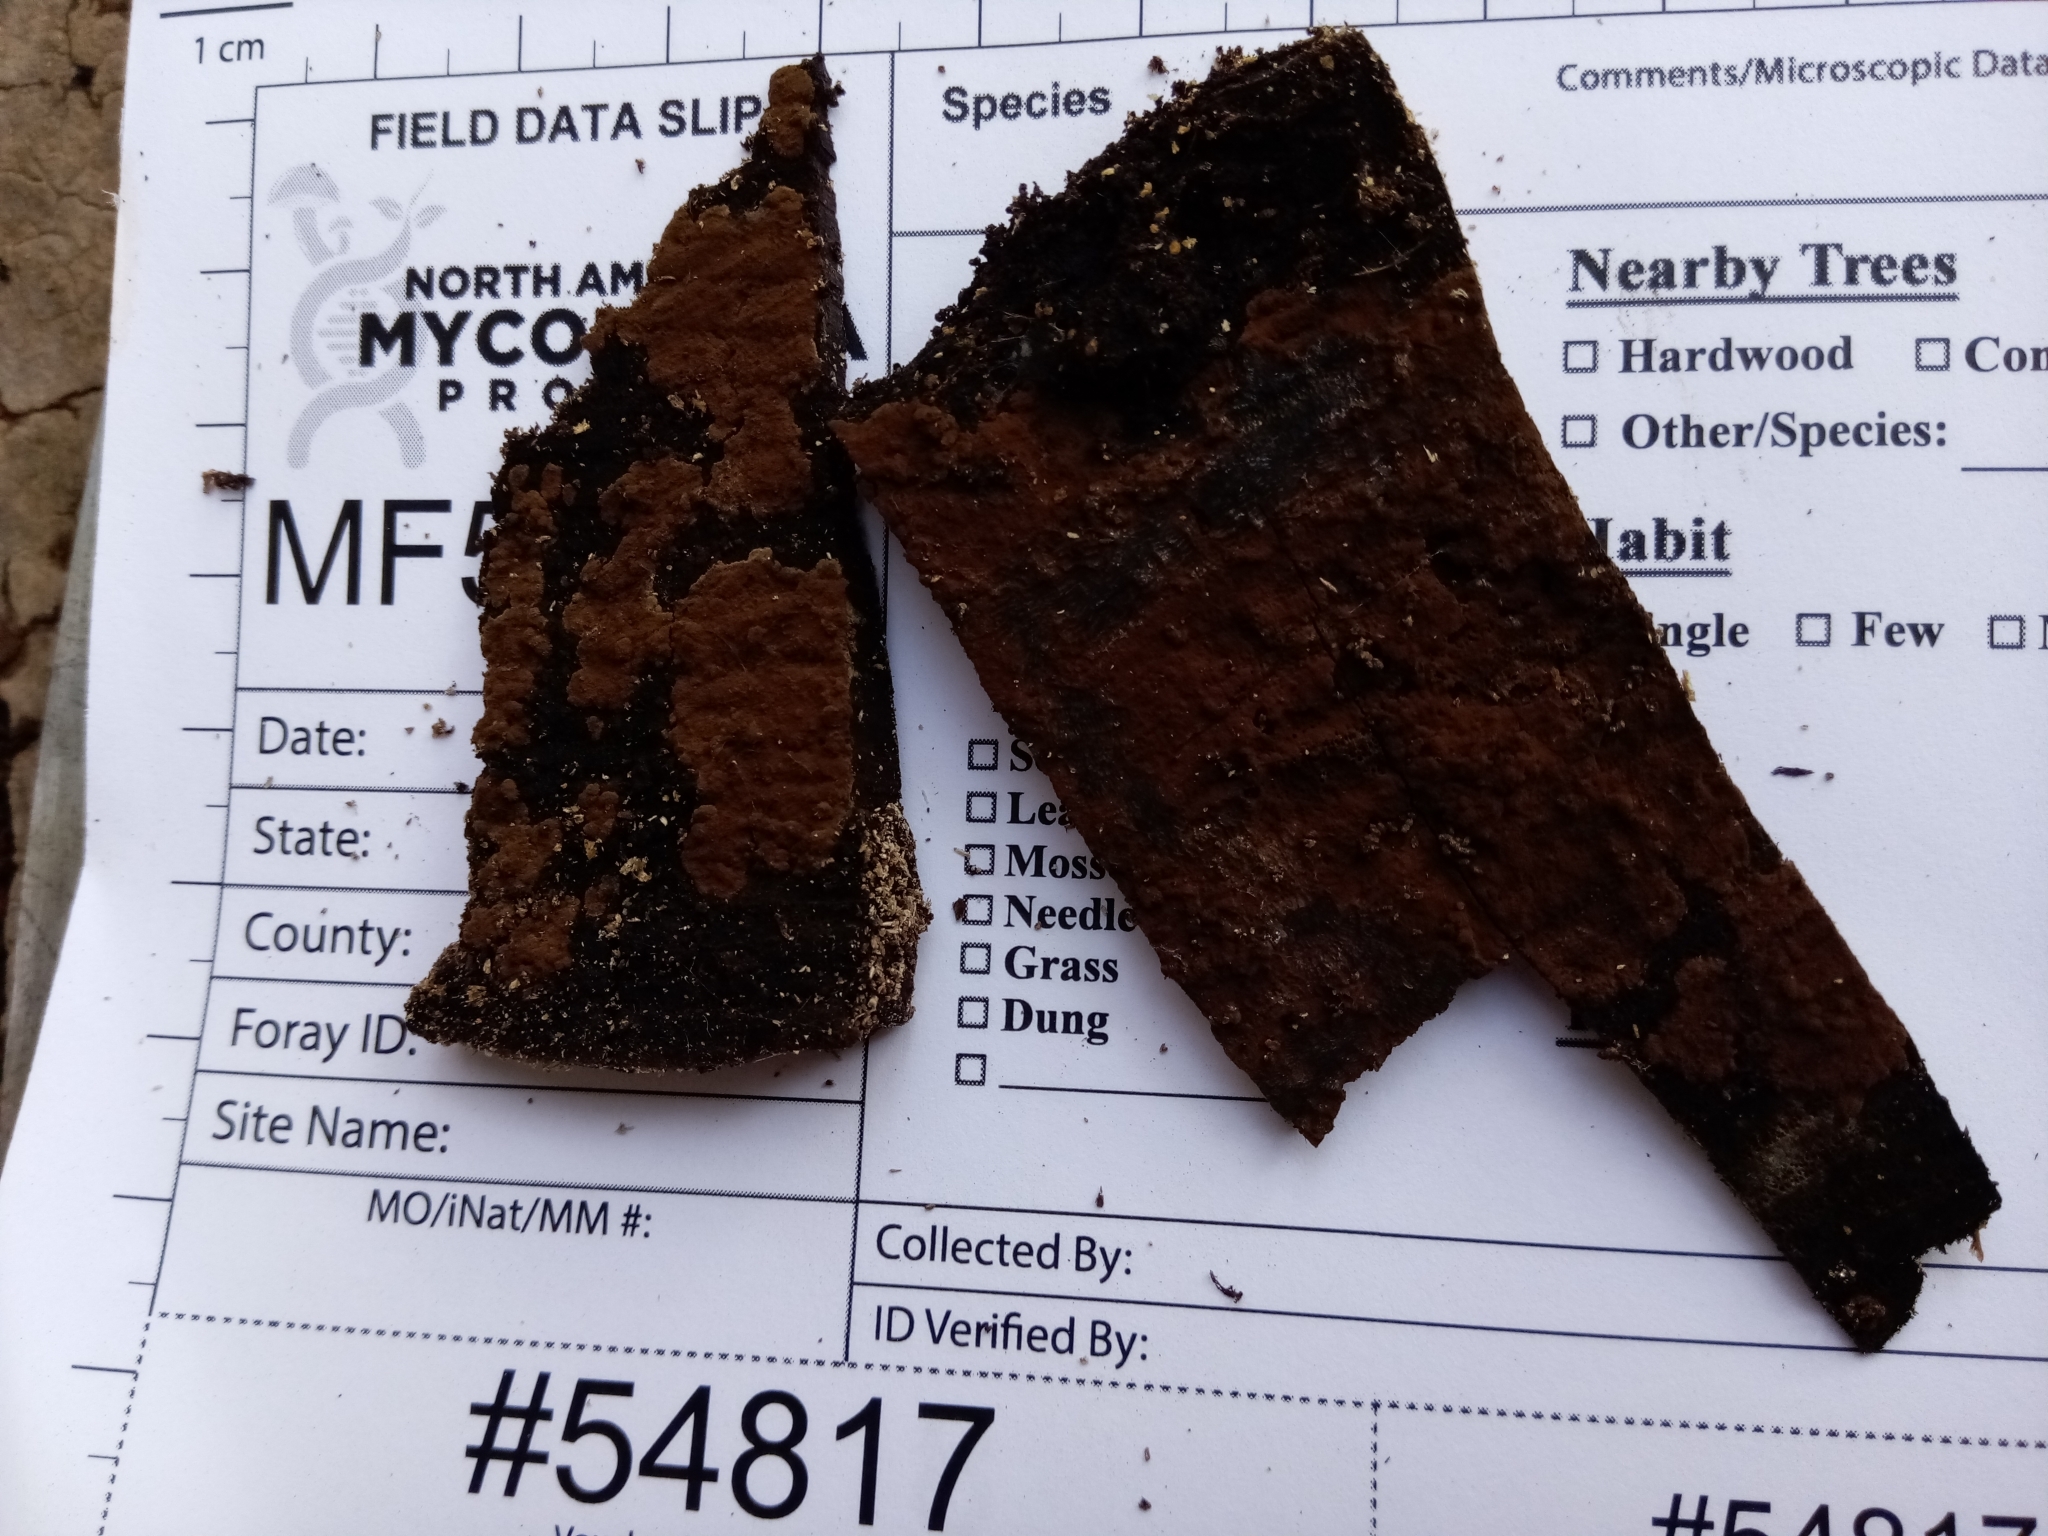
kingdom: Fungi
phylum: Ascomycota
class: Sordariomycetes
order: Xylariales
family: Hypoxylaceae
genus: Hypoxylon
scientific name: Hypoxylon crocopeplum
